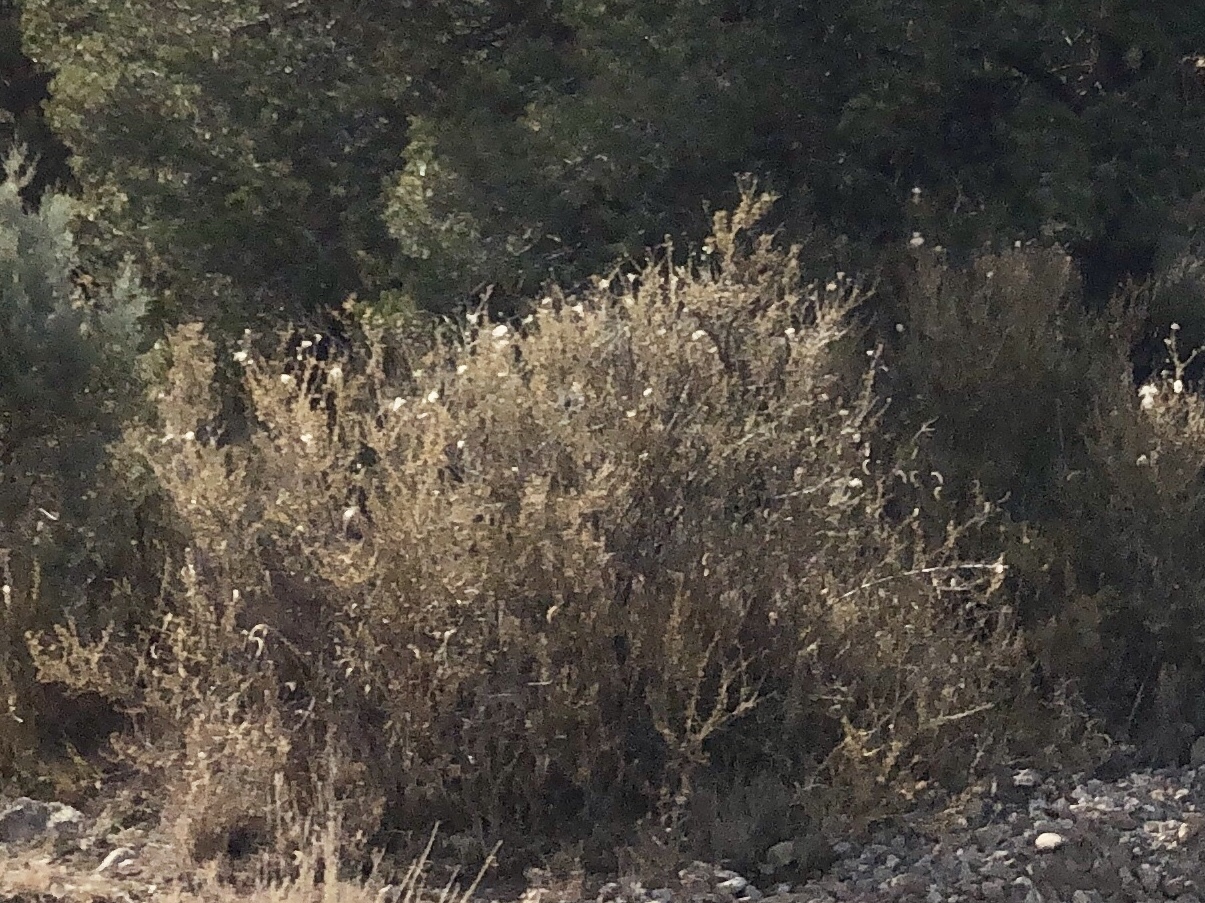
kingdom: Plantae
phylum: Tracheophyta
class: Magnoliopsida
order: Rosales
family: Rosaceae
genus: Fallugia
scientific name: Fallugia paradoxa
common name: Apache-plume
